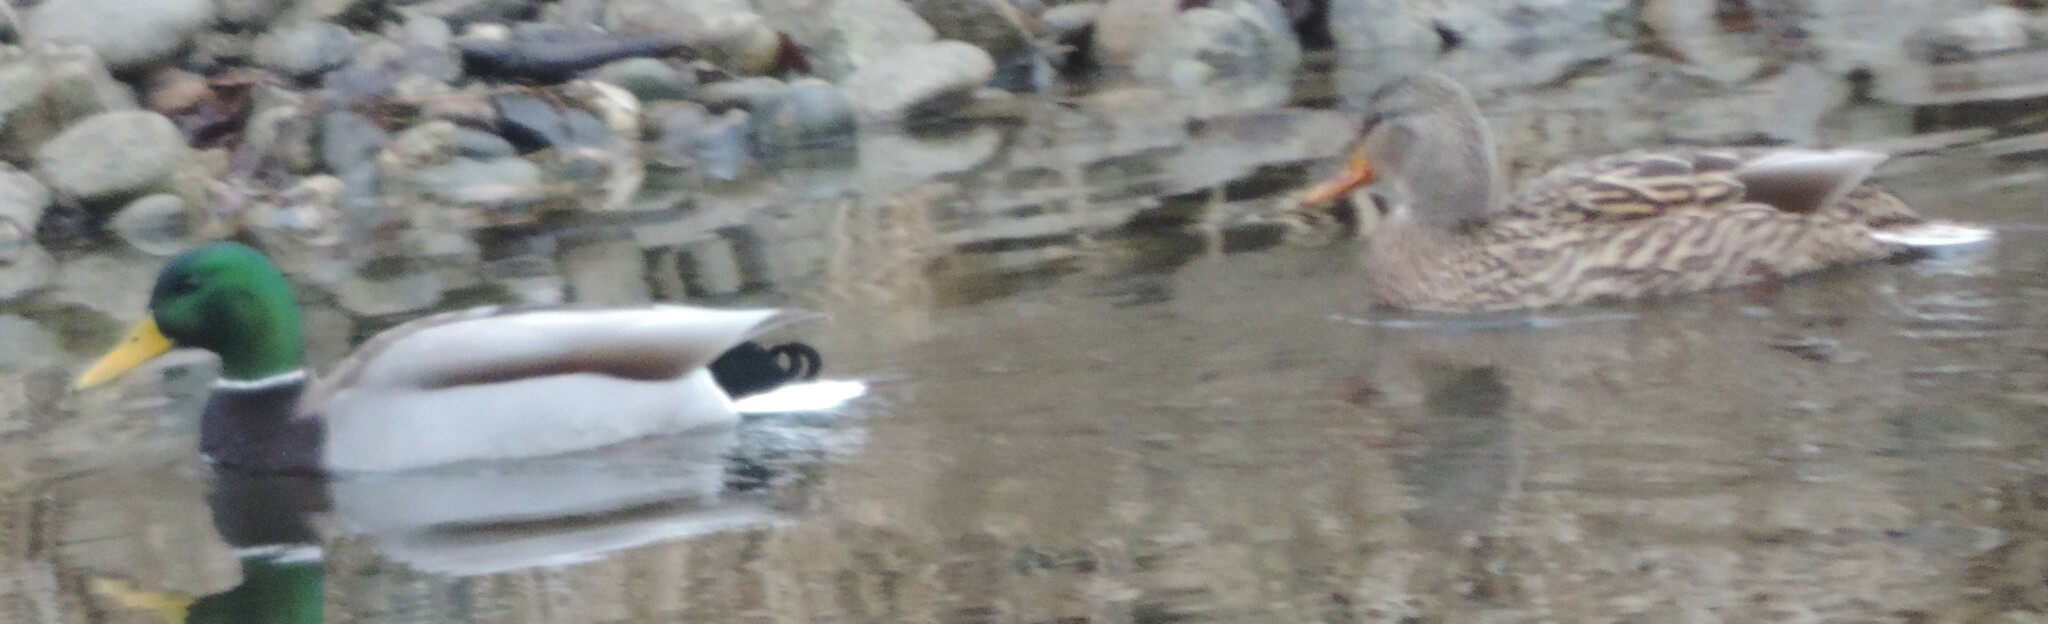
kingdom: Animalia
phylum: Chordata
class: Aves
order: Anseriformes
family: Anatidae
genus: Anas
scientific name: Anas platyrhynchos
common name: Mallard
